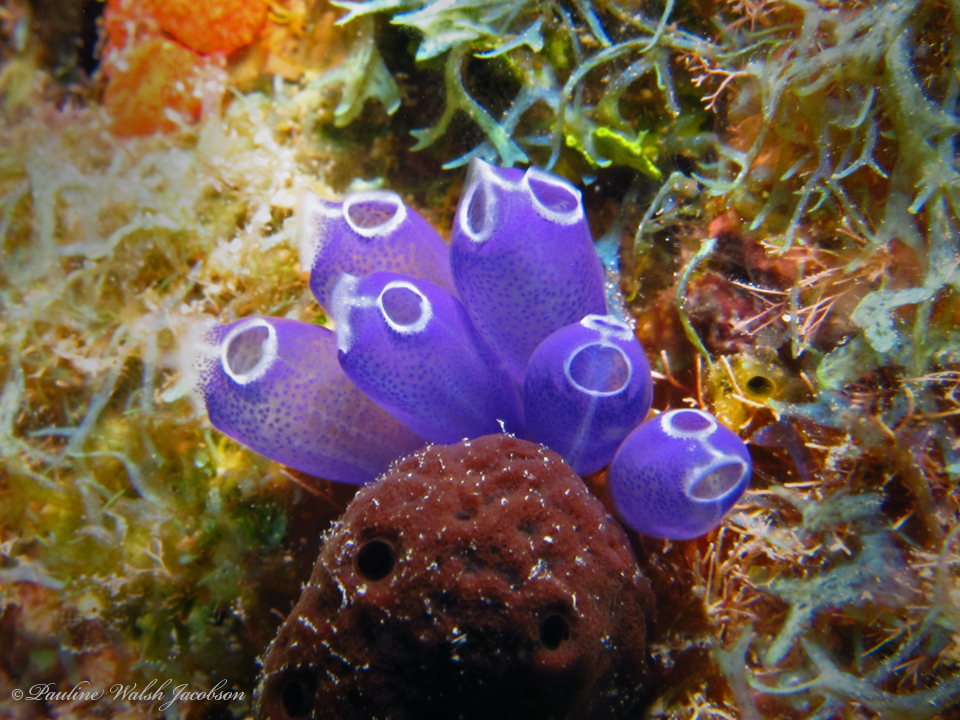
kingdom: Animalia
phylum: Chordata
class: Ascidiacea
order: Aplousobranchia
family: Clavelinidae
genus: Clavelina
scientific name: Clavelina puertosecensis
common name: Blue bell tunicate
